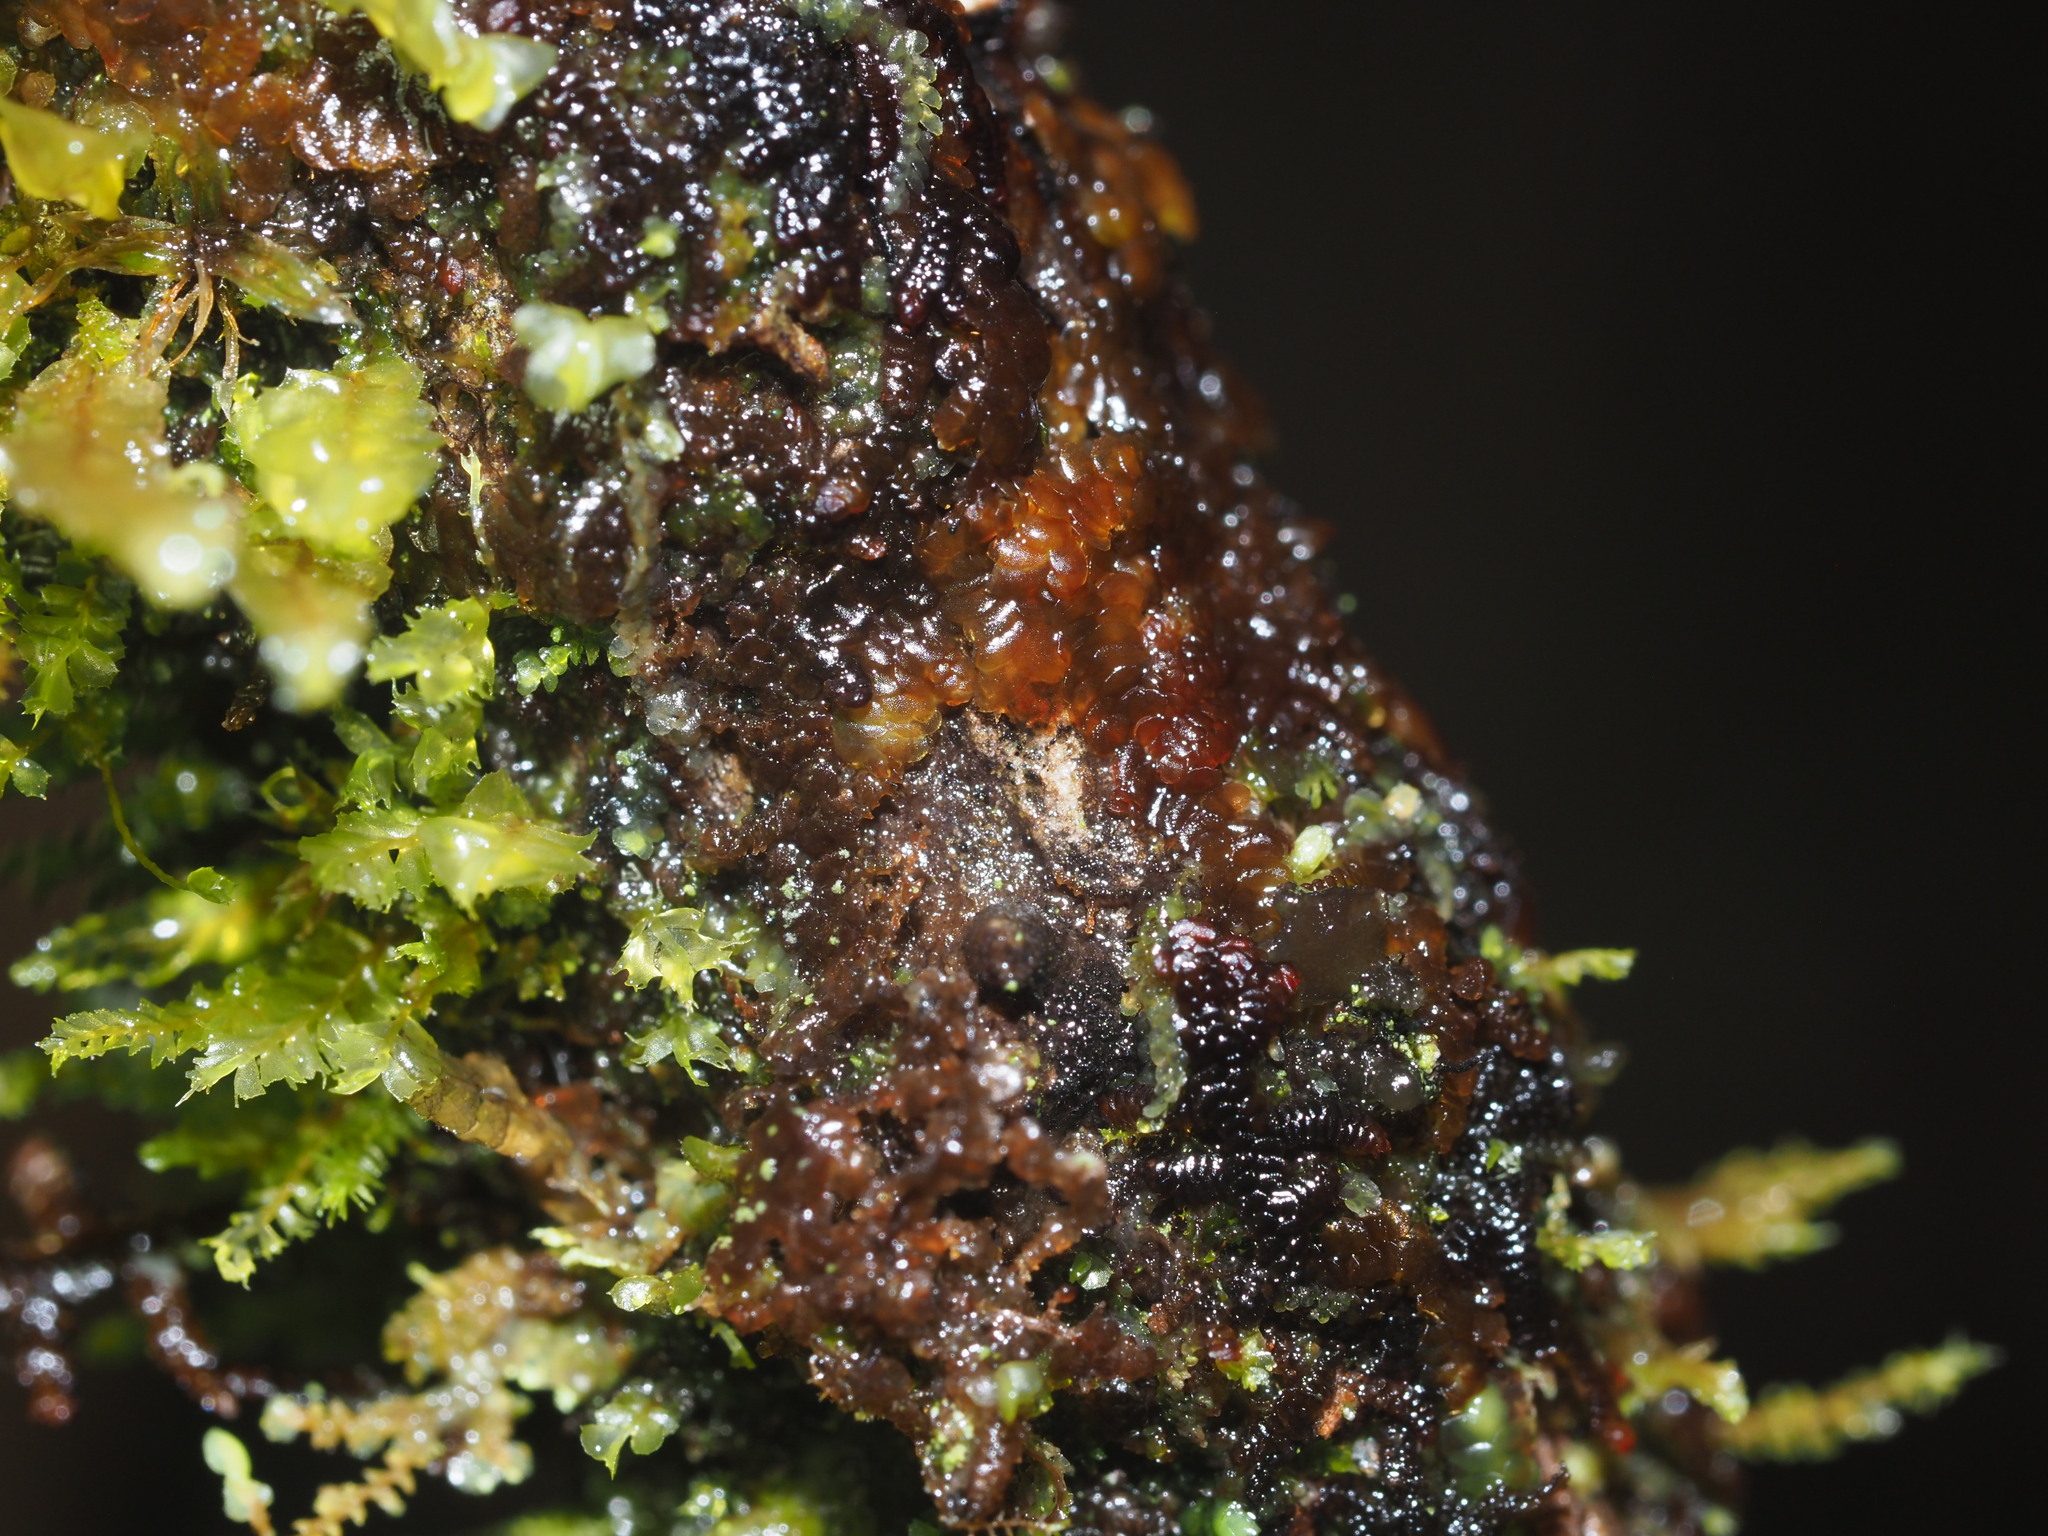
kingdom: Plantae
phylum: Marchantiophyta
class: Jungermanniopsida
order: Porellales
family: Frullaniaceae
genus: Frullania
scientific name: Frullania hypoleuca
